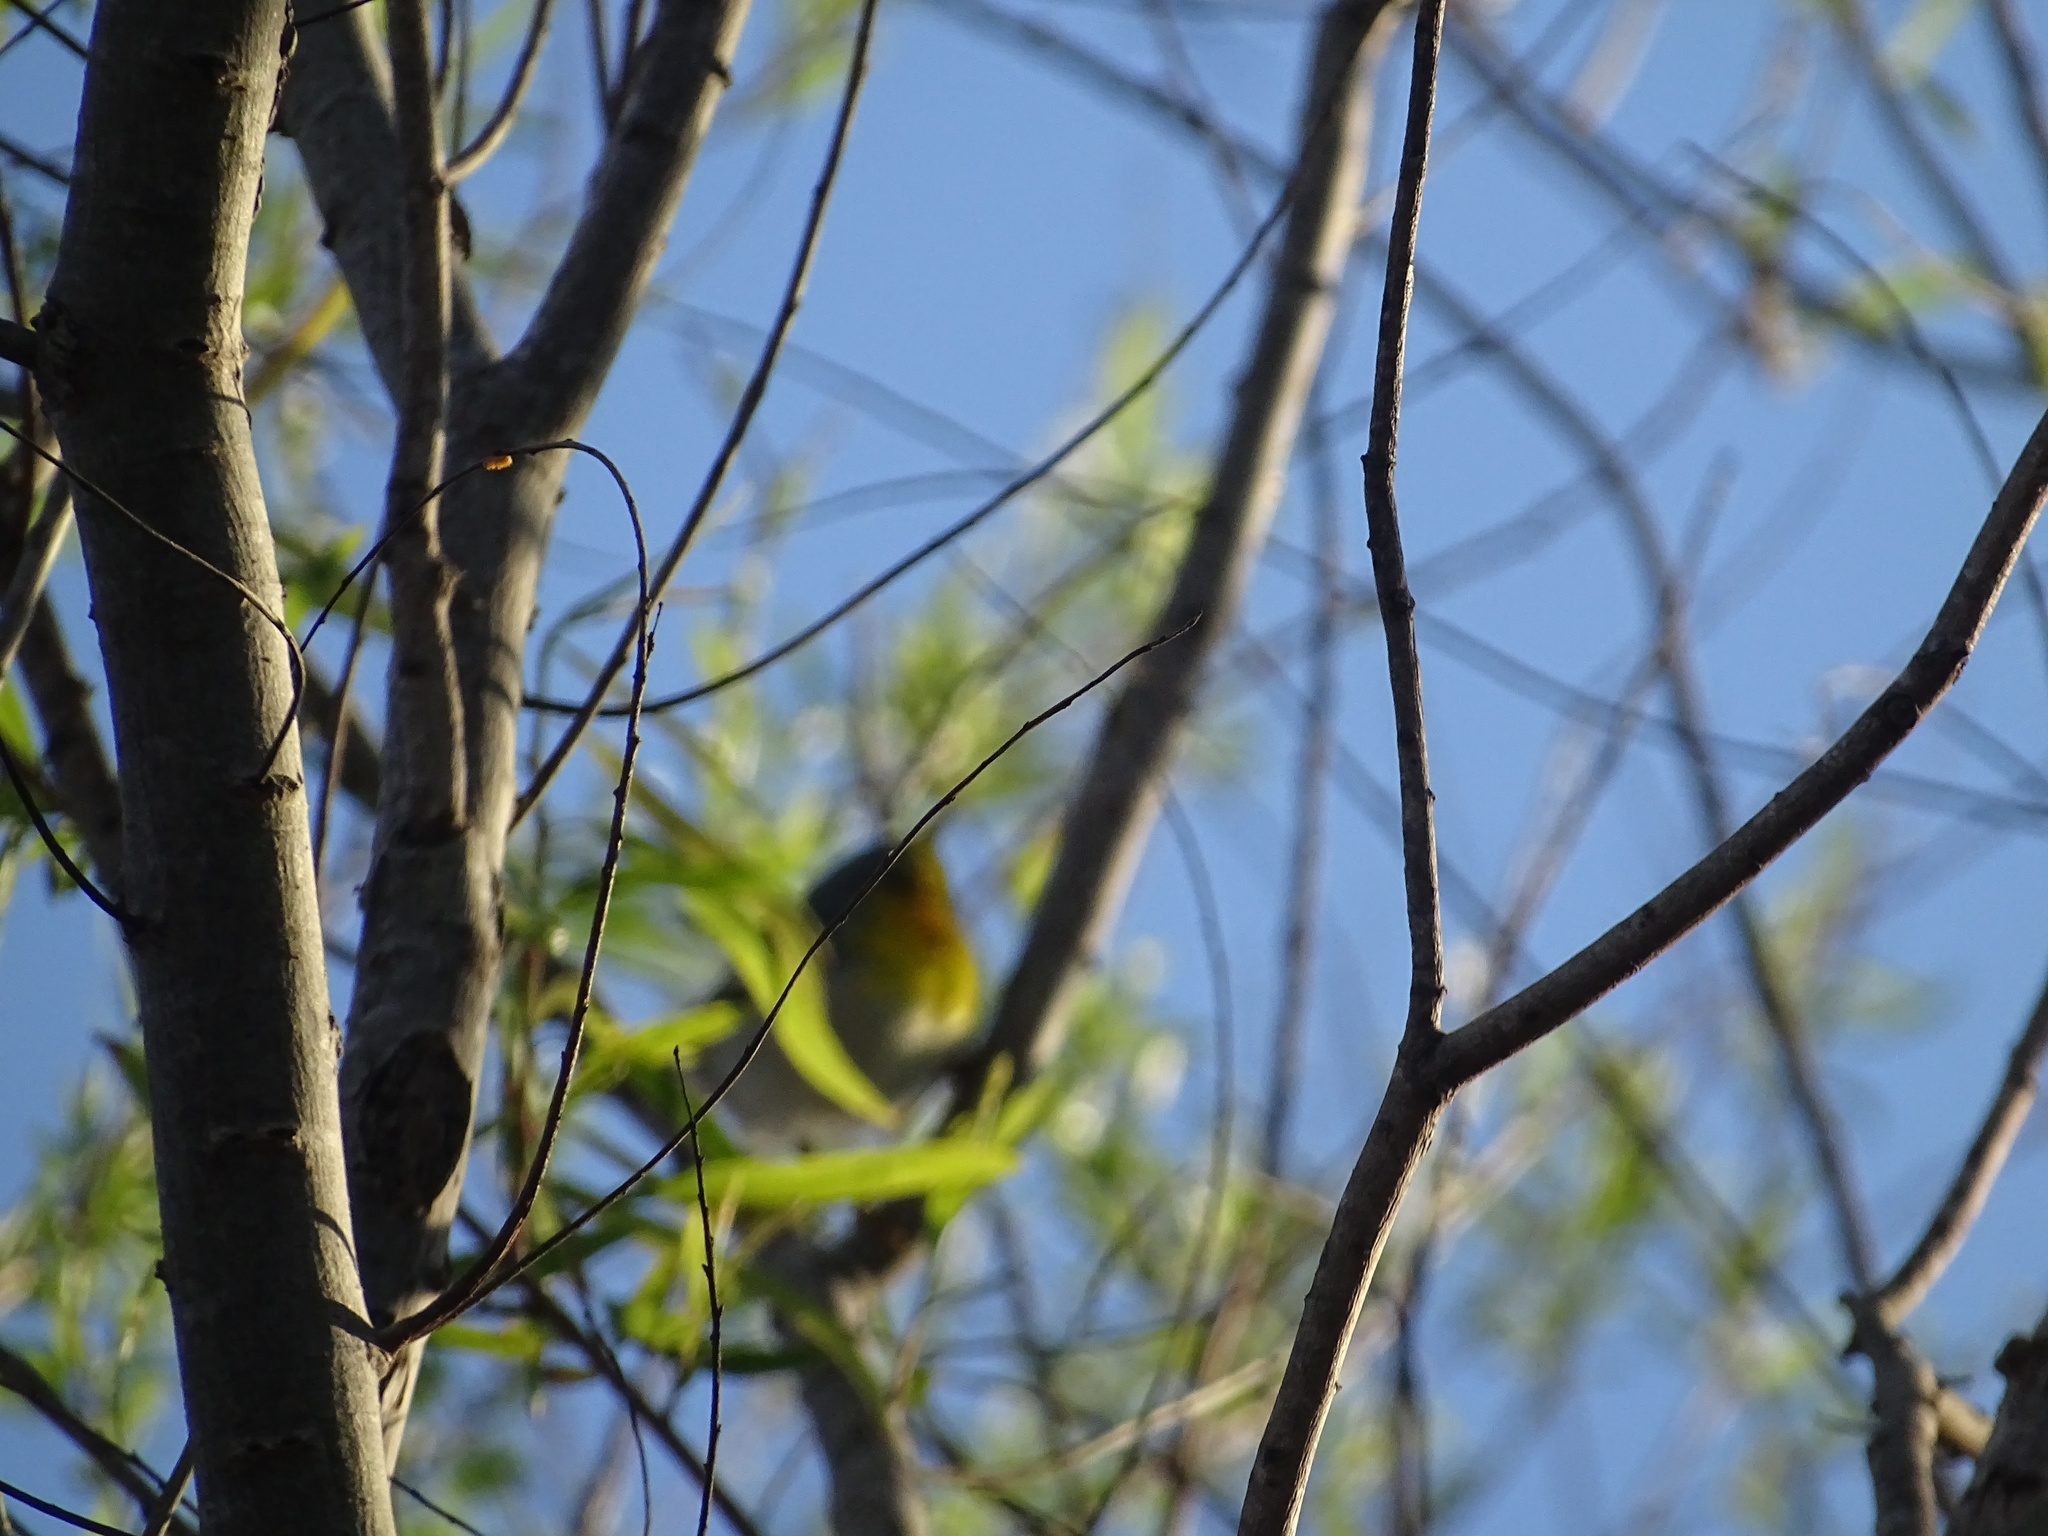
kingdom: Animalia
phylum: Chordata
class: Aves
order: Passeriformes
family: Parulidae
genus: Setophaga
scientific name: Setophaga americana
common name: Northern parula
